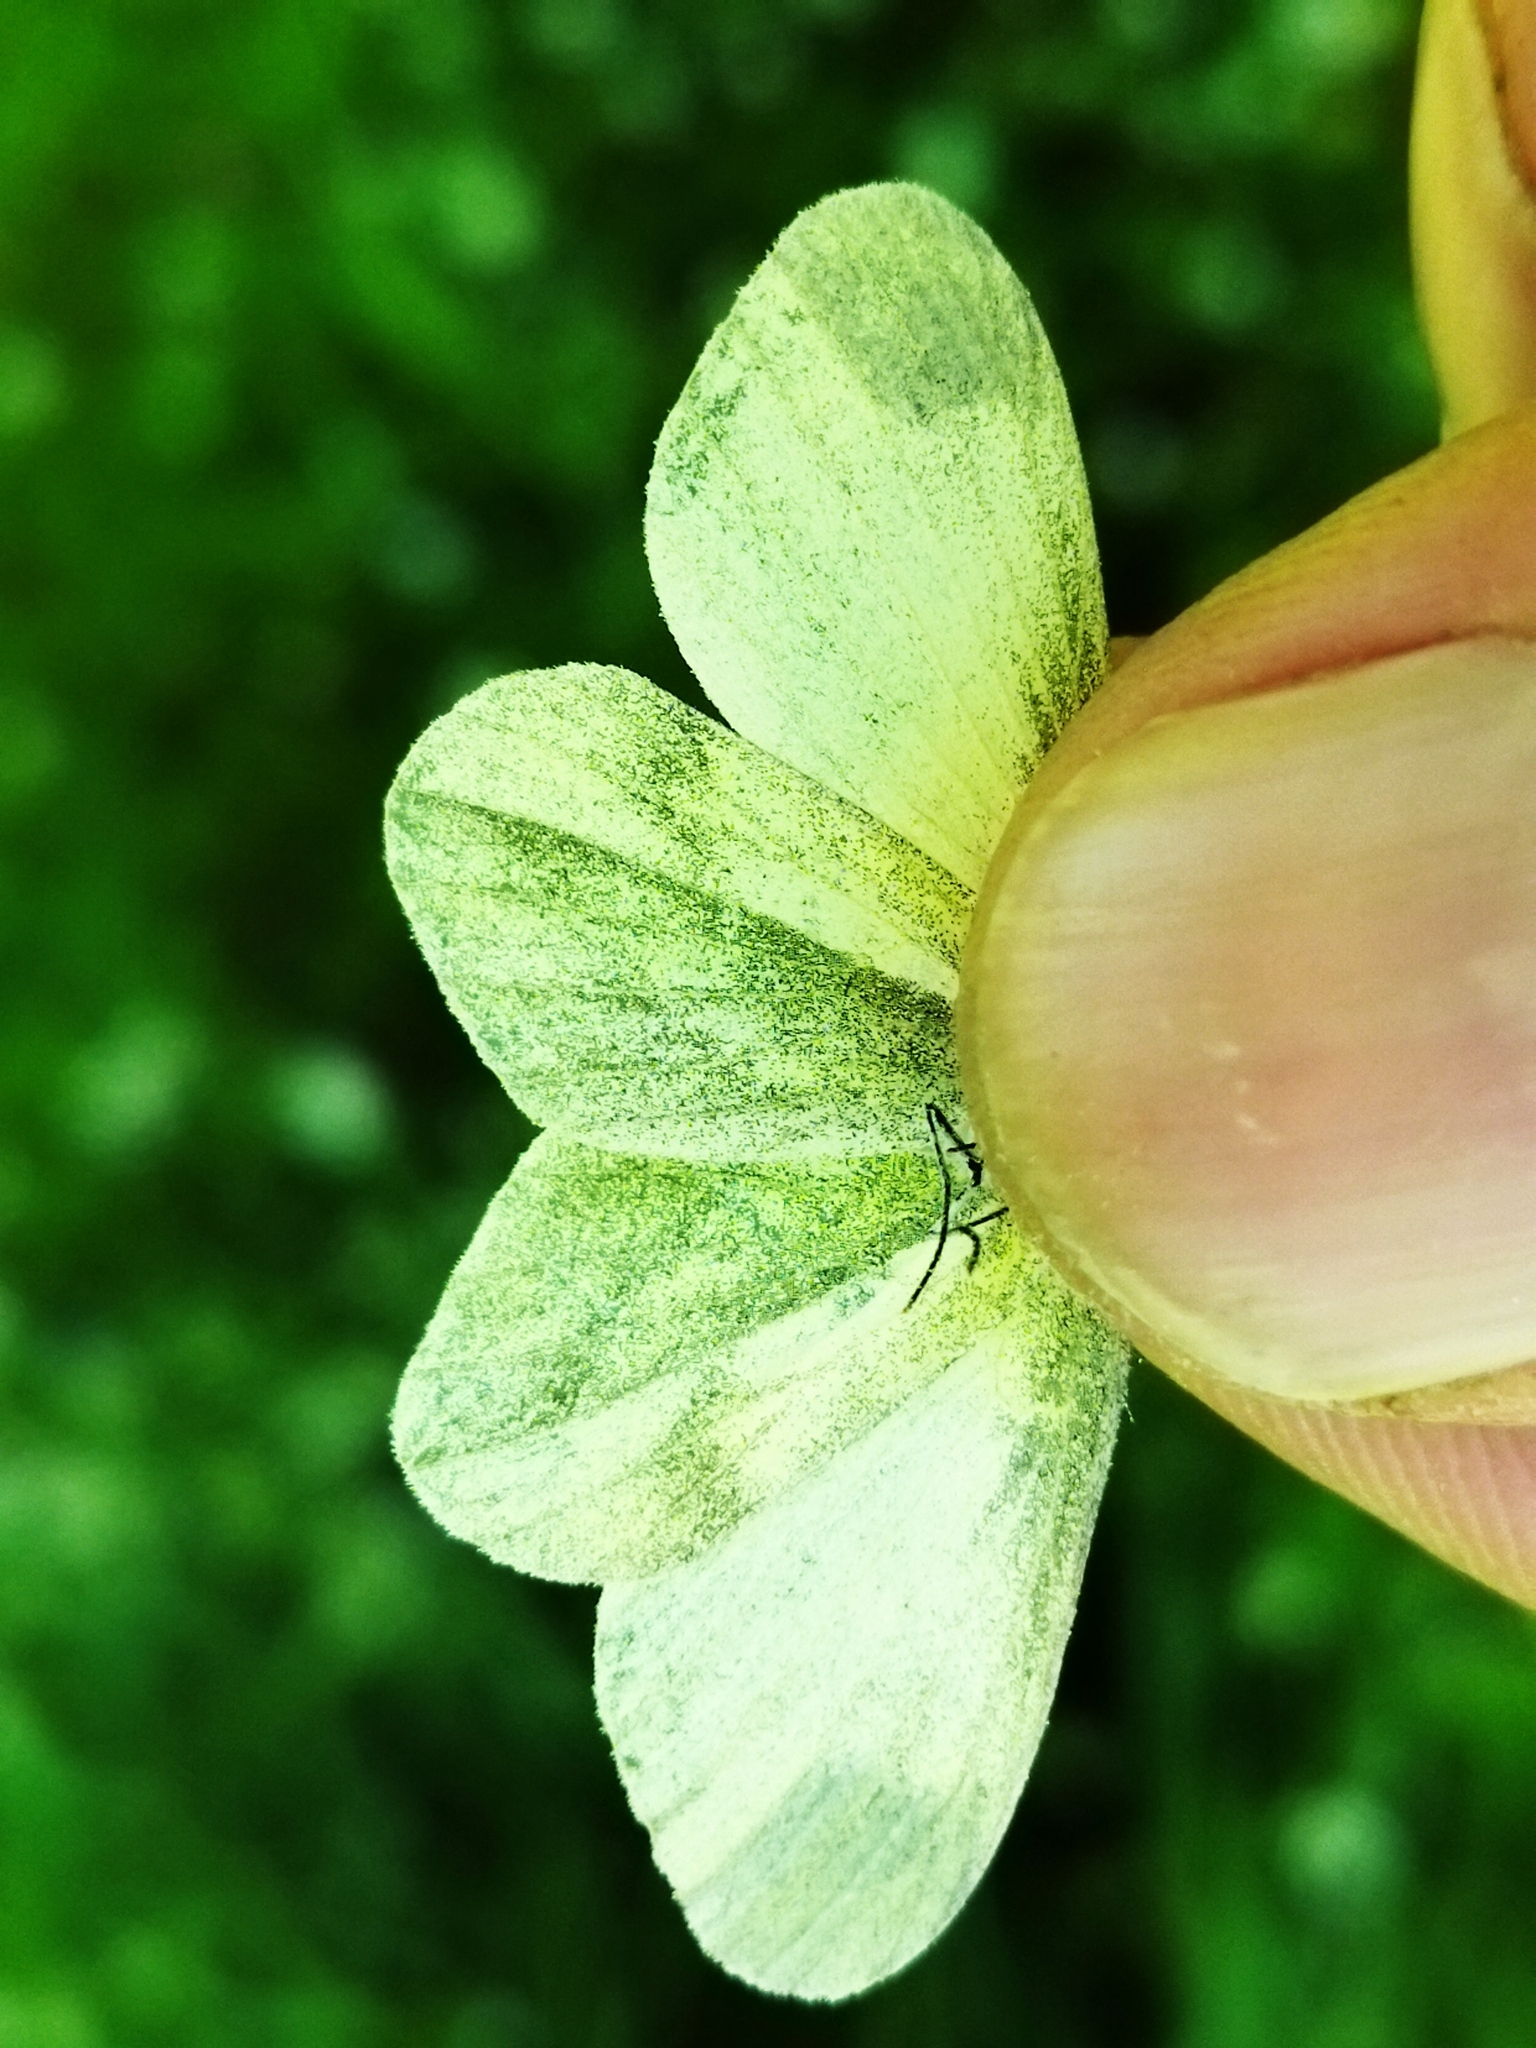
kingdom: Animalia
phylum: Arthropoda
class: Insecta
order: Lepidoptera
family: Pieridae
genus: Leptidea
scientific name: Leptidea
